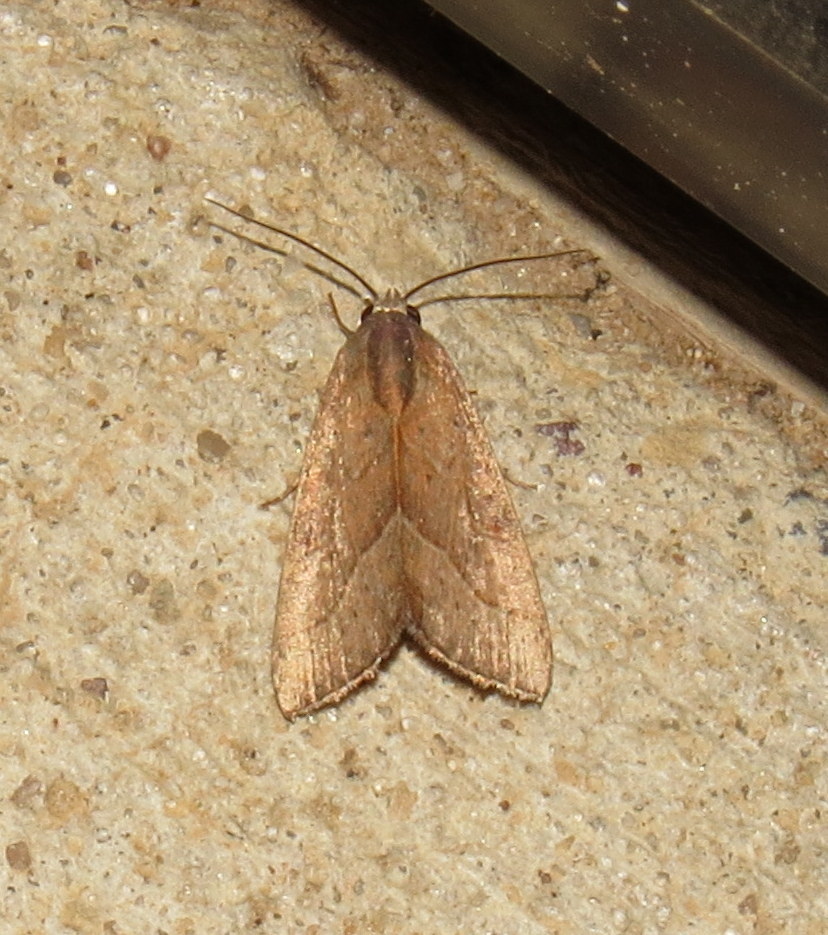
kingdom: Animalia
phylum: Arthropoda
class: Insecta
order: Lepidoptera
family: Noctuidae
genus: Galgula
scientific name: Galgula partita
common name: Wedgeling
